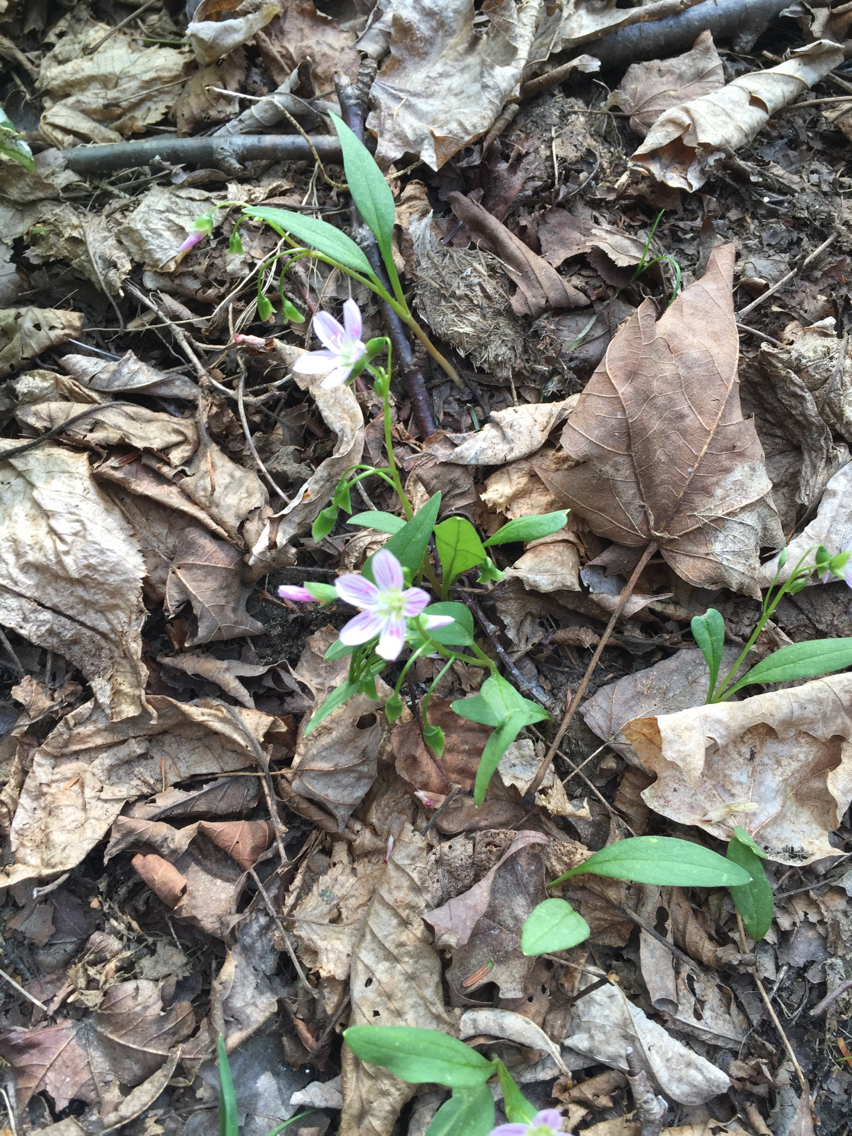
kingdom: Plantae
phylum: Tracheophyta
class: Magnoliopsida
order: Caryophyllales
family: Montiaceae
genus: Claytonia
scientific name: Claytonia caroliniana
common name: Carolina spring beauty
